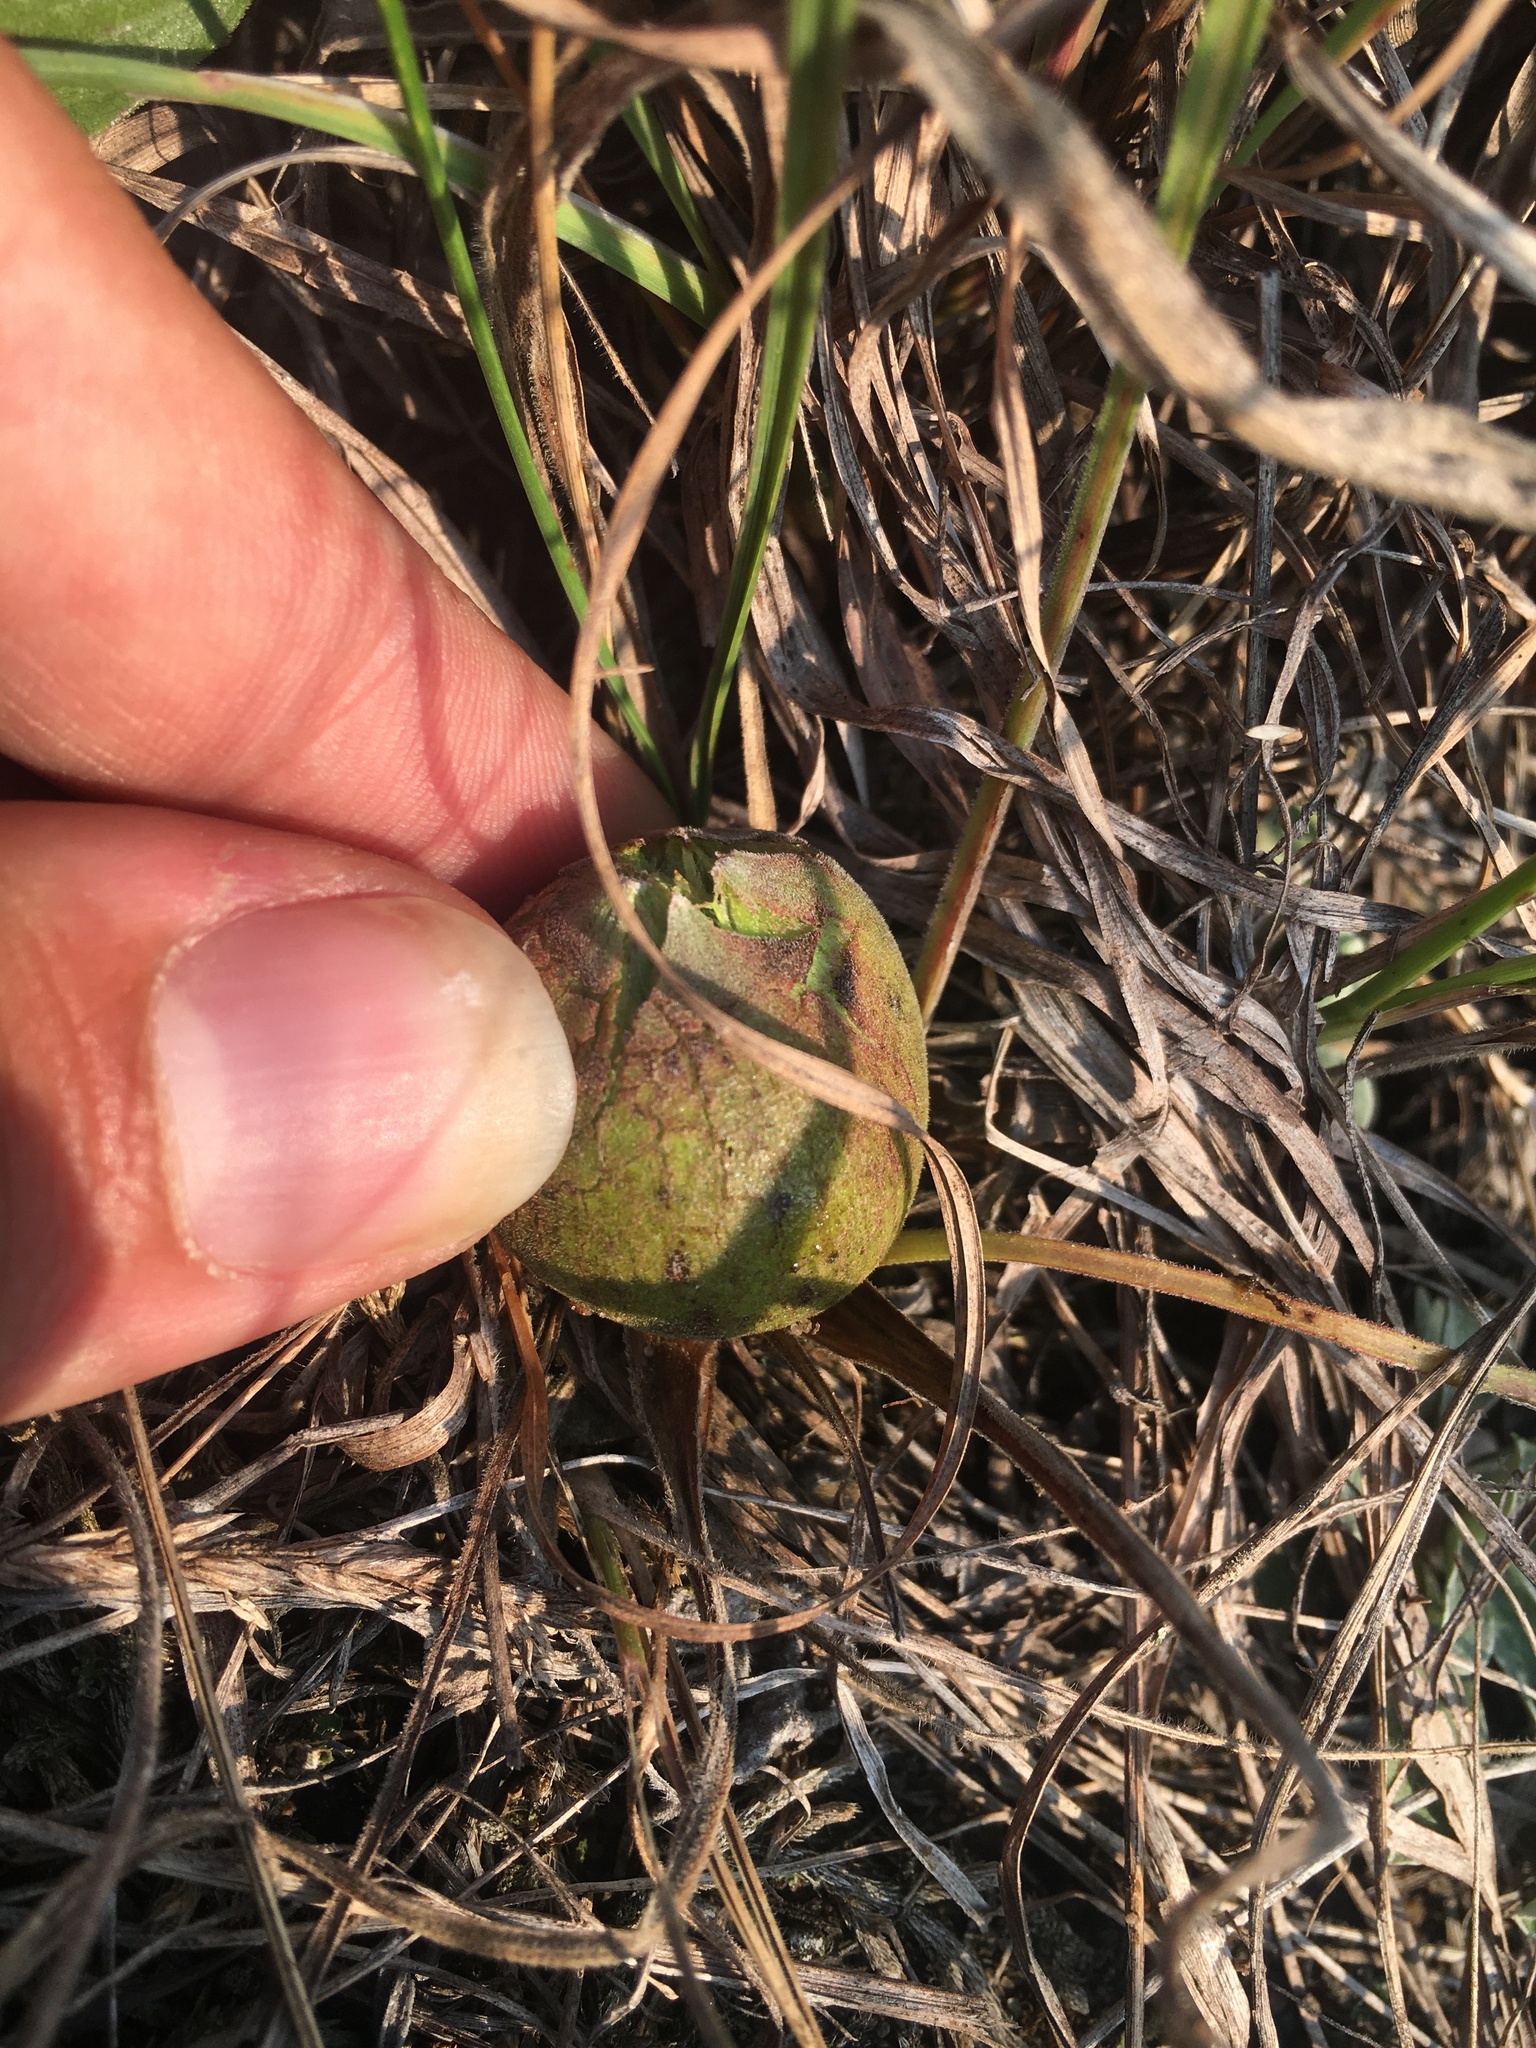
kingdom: Animalia
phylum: Arthropoda
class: Insecta
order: Diptera
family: Cecidomyiidae
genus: Rhopalomyia
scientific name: Rhopalomyia hirtipes
